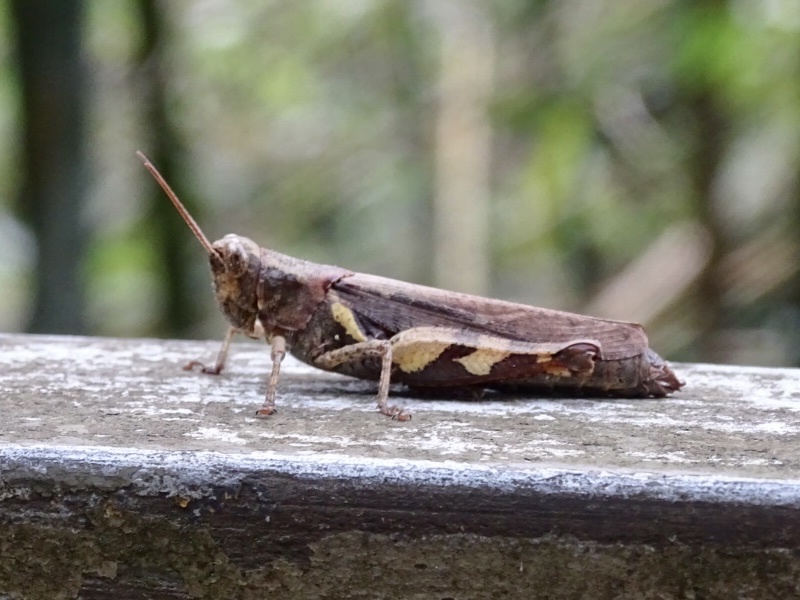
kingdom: Animalia
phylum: Arthropoda
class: Insecta
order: Orthoptera
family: Acrididae
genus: Xenocatantops
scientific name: Xenocatantops humile
